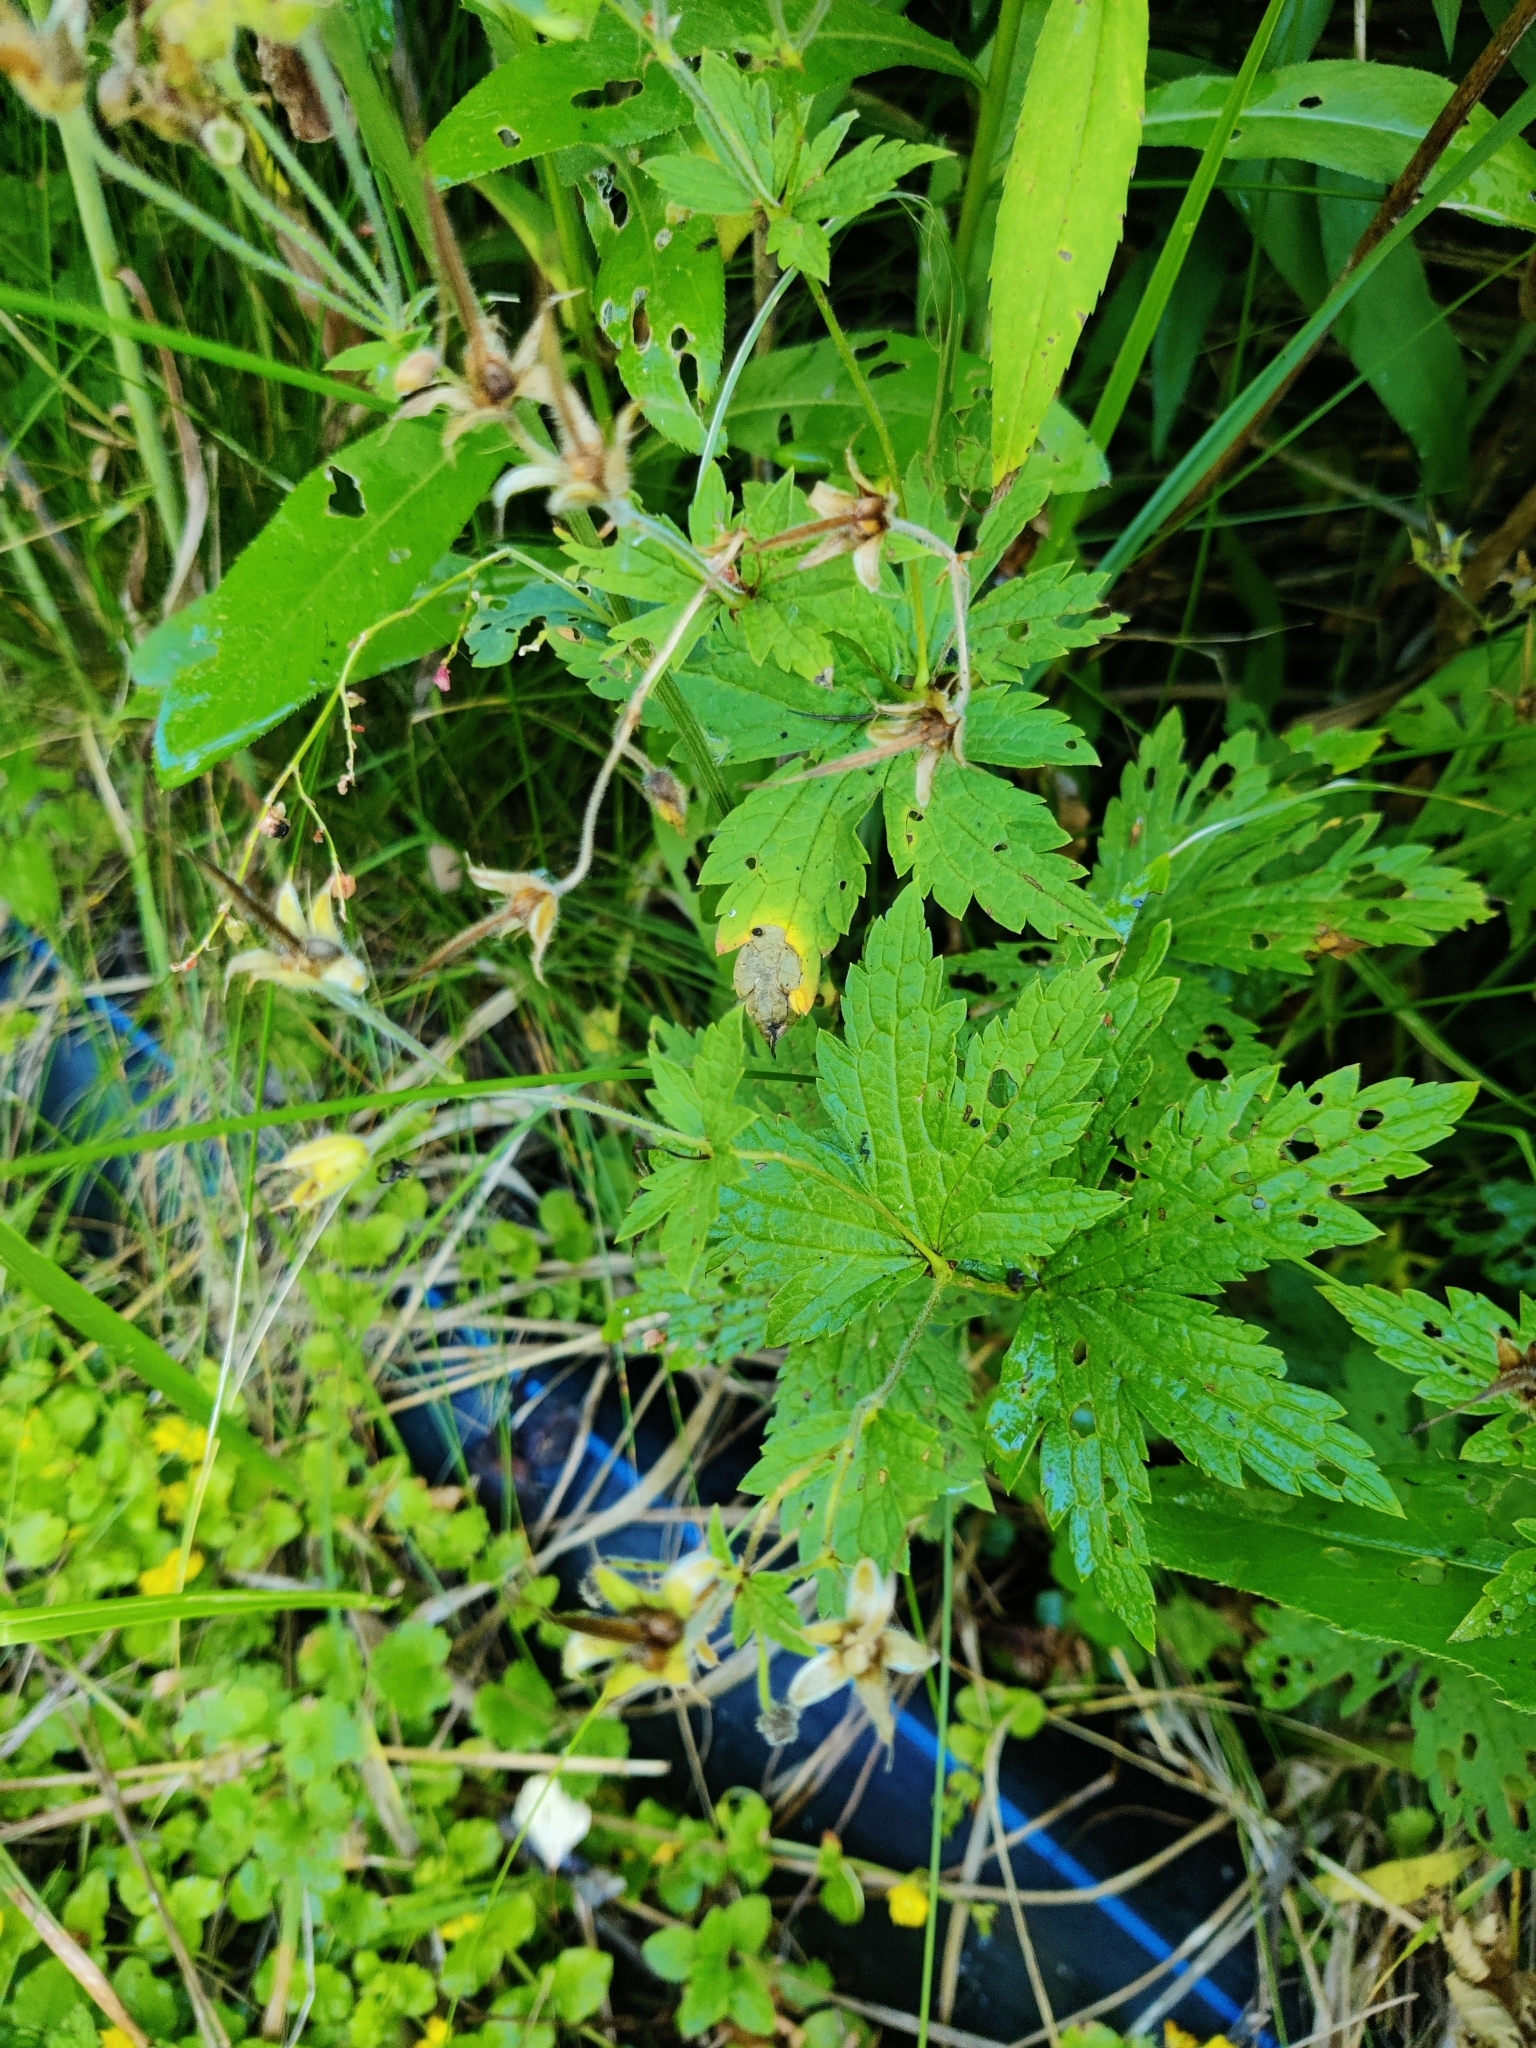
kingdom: Plantae
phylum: Tracheophyta
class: Magnoliopsida
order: Geraniales
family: Geraniaceae
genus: Geranium
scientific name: Geranium sylvaticum
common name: Wood crane's-bill
